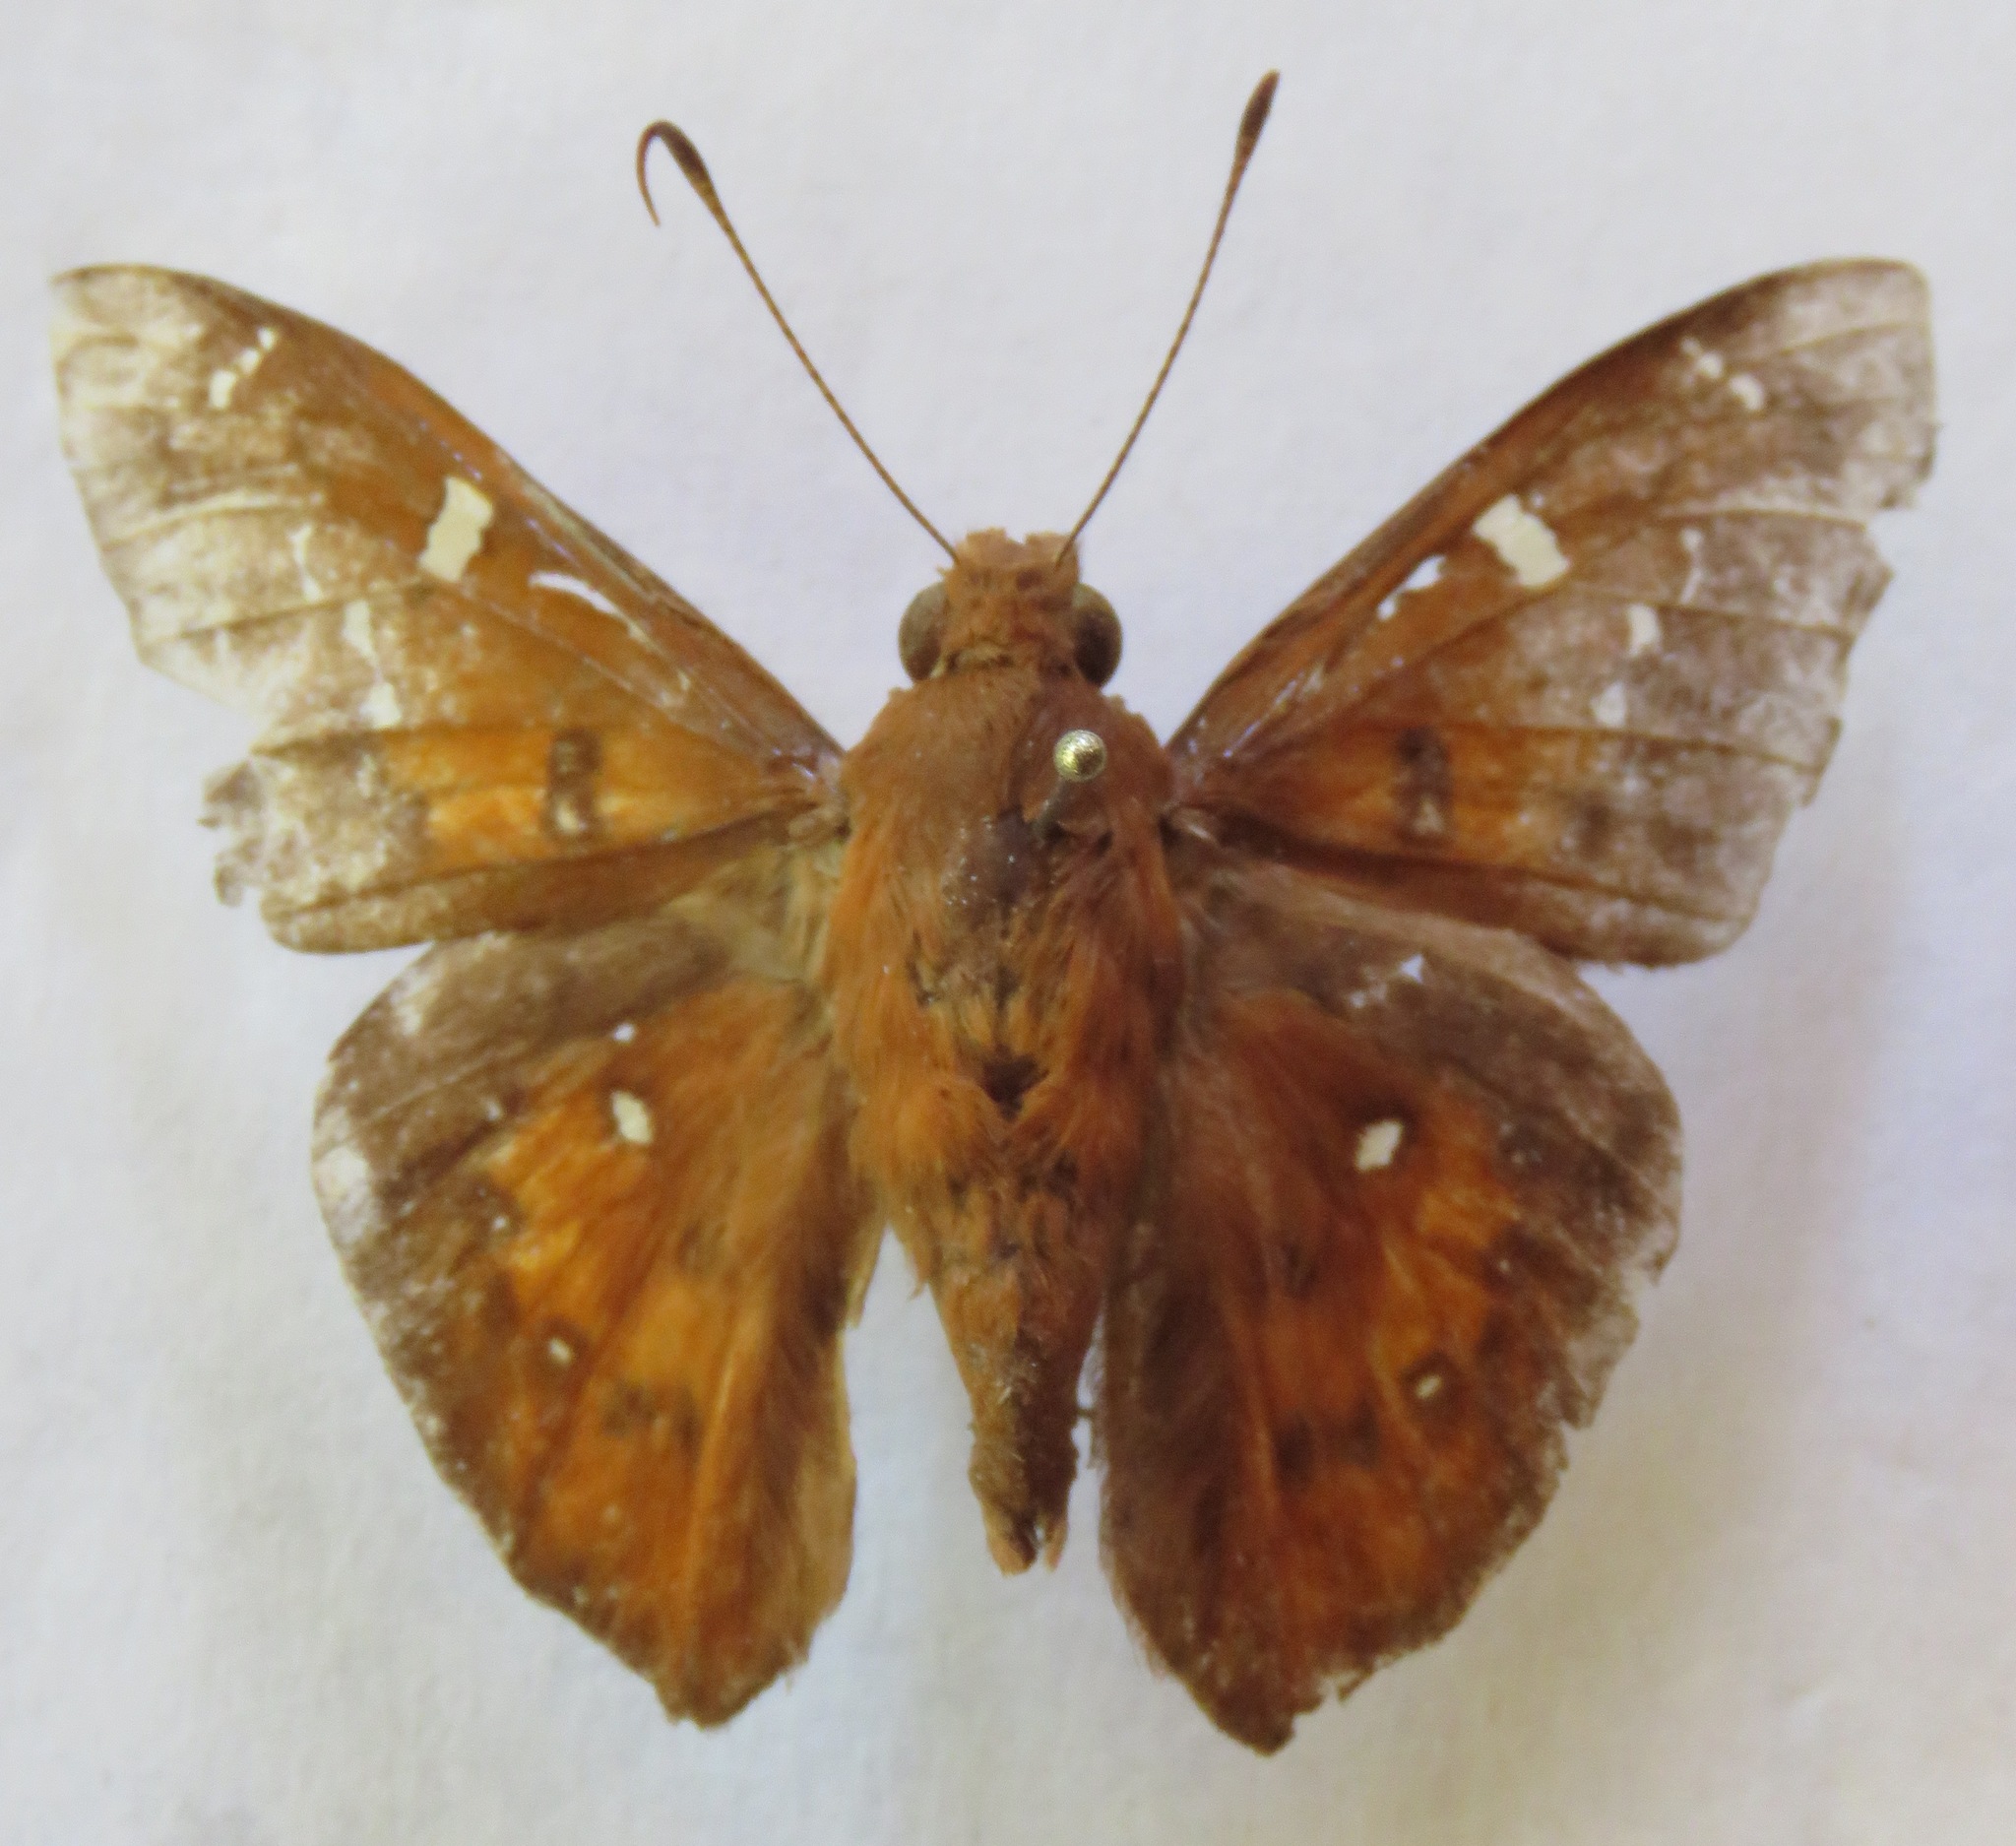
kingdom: Animalia
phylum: Arthropoda
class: Insecta
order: Lepidoptera
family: Hesperiidae
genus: Dyscophellus
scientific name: Dyscophellus porcius
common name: Fiery scarlet-eye
